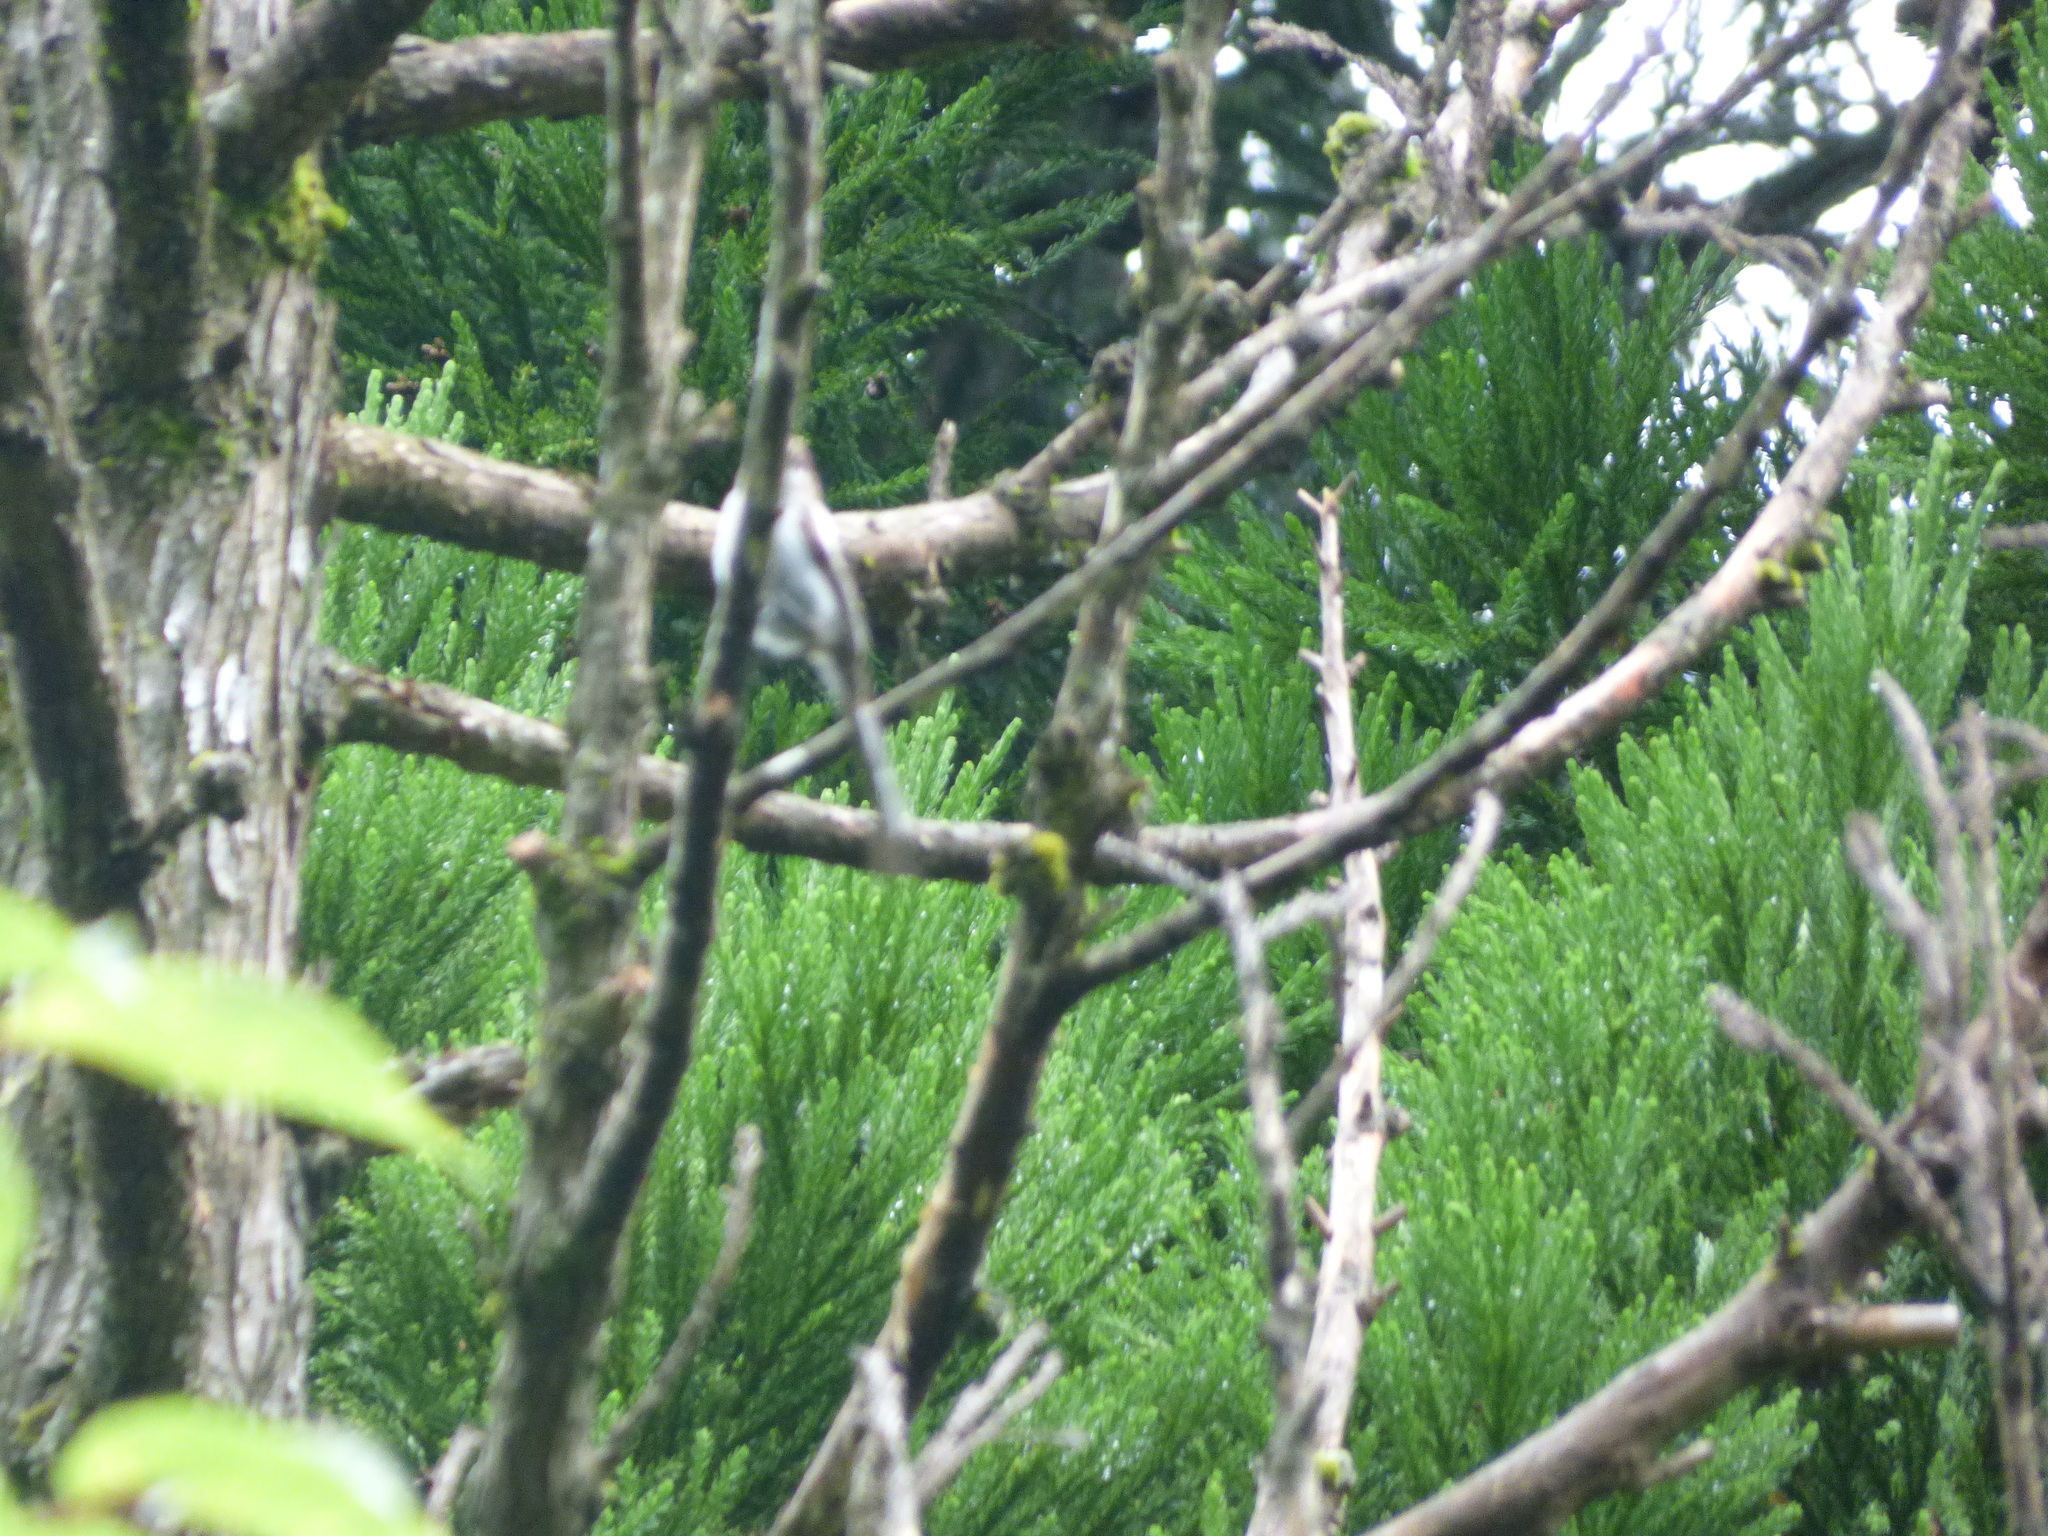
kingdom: Animalia
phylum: Chordata
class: Aves
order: Passeriformes
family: Aegithalidae
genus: Aegithalos
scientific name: Aegithalos caudatus
